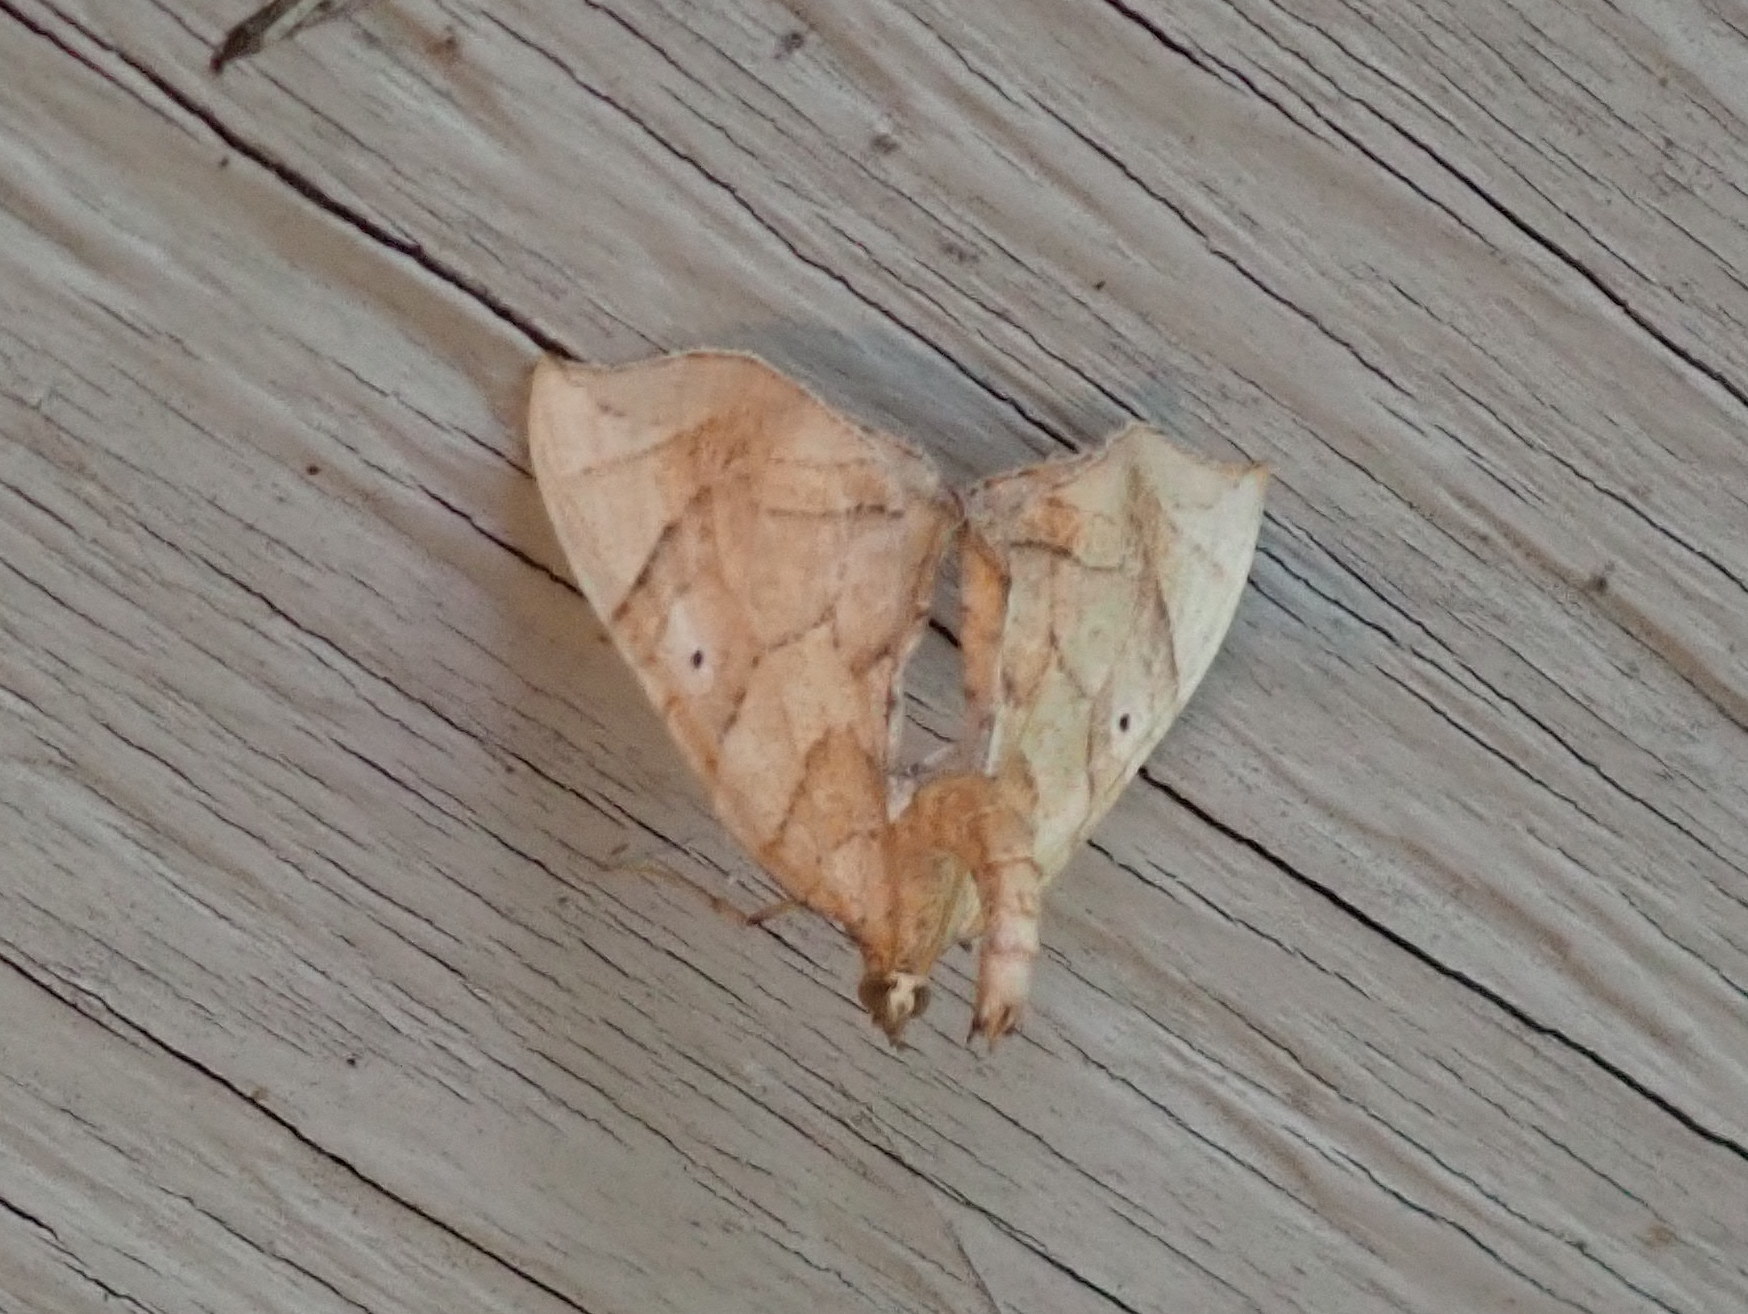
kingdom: Animalia
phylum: Arthropoda
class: Insecta
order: Lepidoptera
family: Geometridae
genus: Eulithis
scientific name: Eulithis
